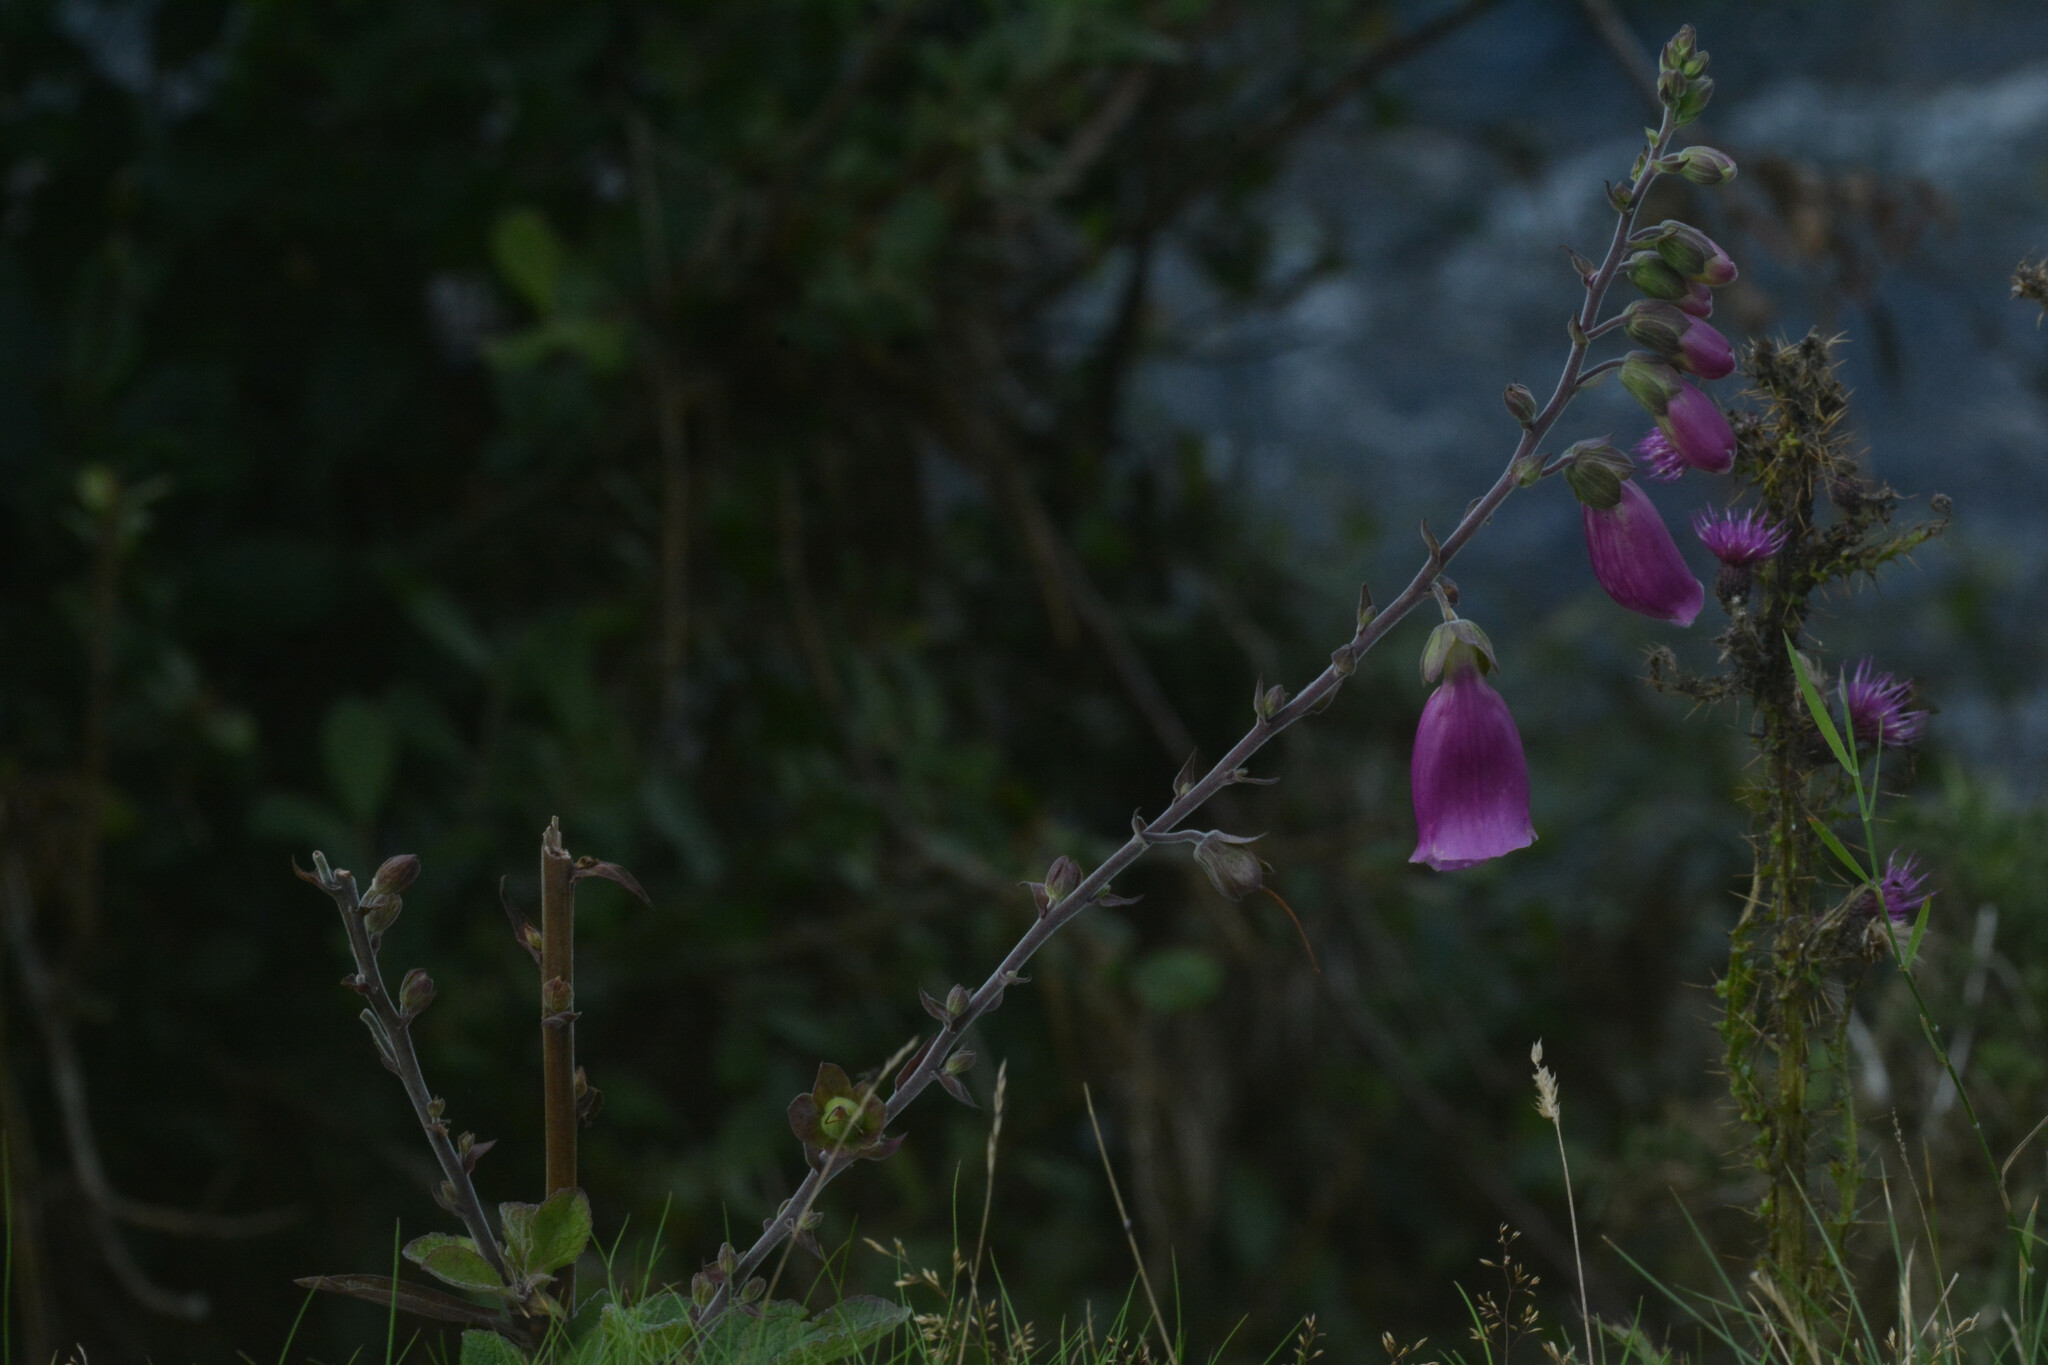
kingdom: Plantae
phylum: Tracheophyta
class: Magnoliopsida
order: Lamiales
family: Plantaginaceae
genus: Digitalis
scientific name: Digitalis purpurea
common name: Foxglove
